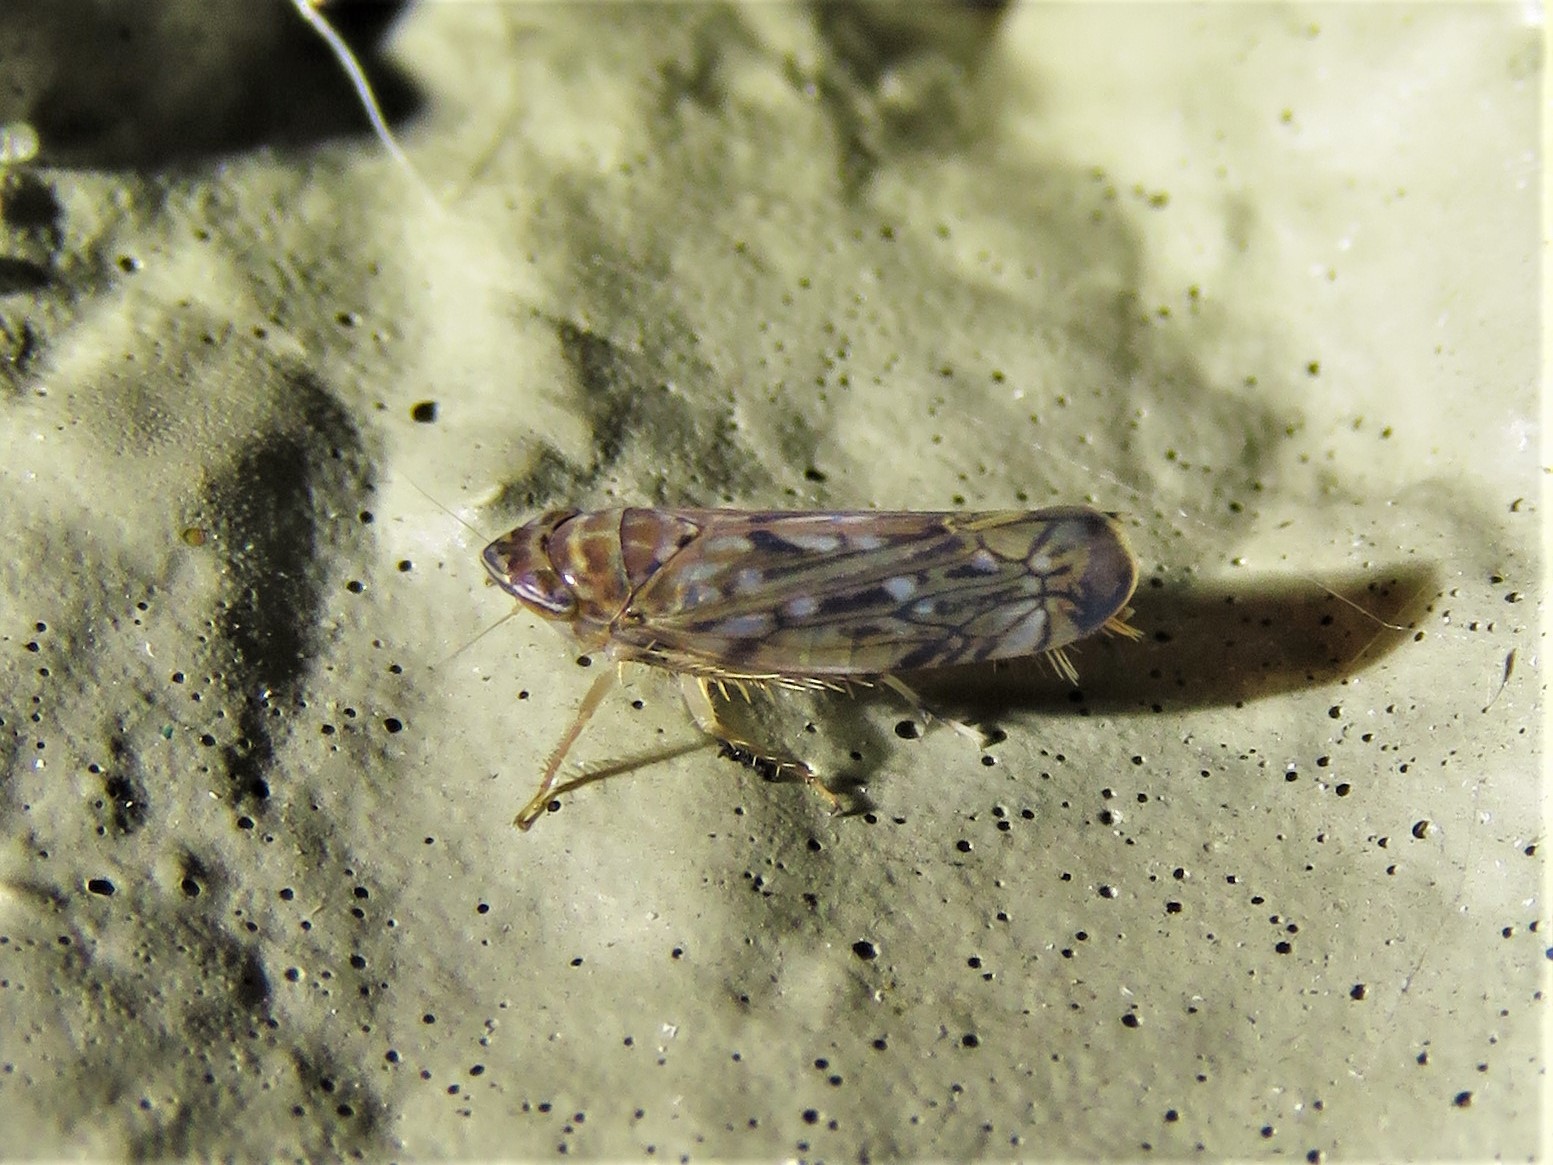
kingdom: Animalia
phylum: Arthropoda
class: Insecta
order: Hemiptera
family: Cicadellidae
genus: Scaphoideus
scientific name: Scaphoideus productus
